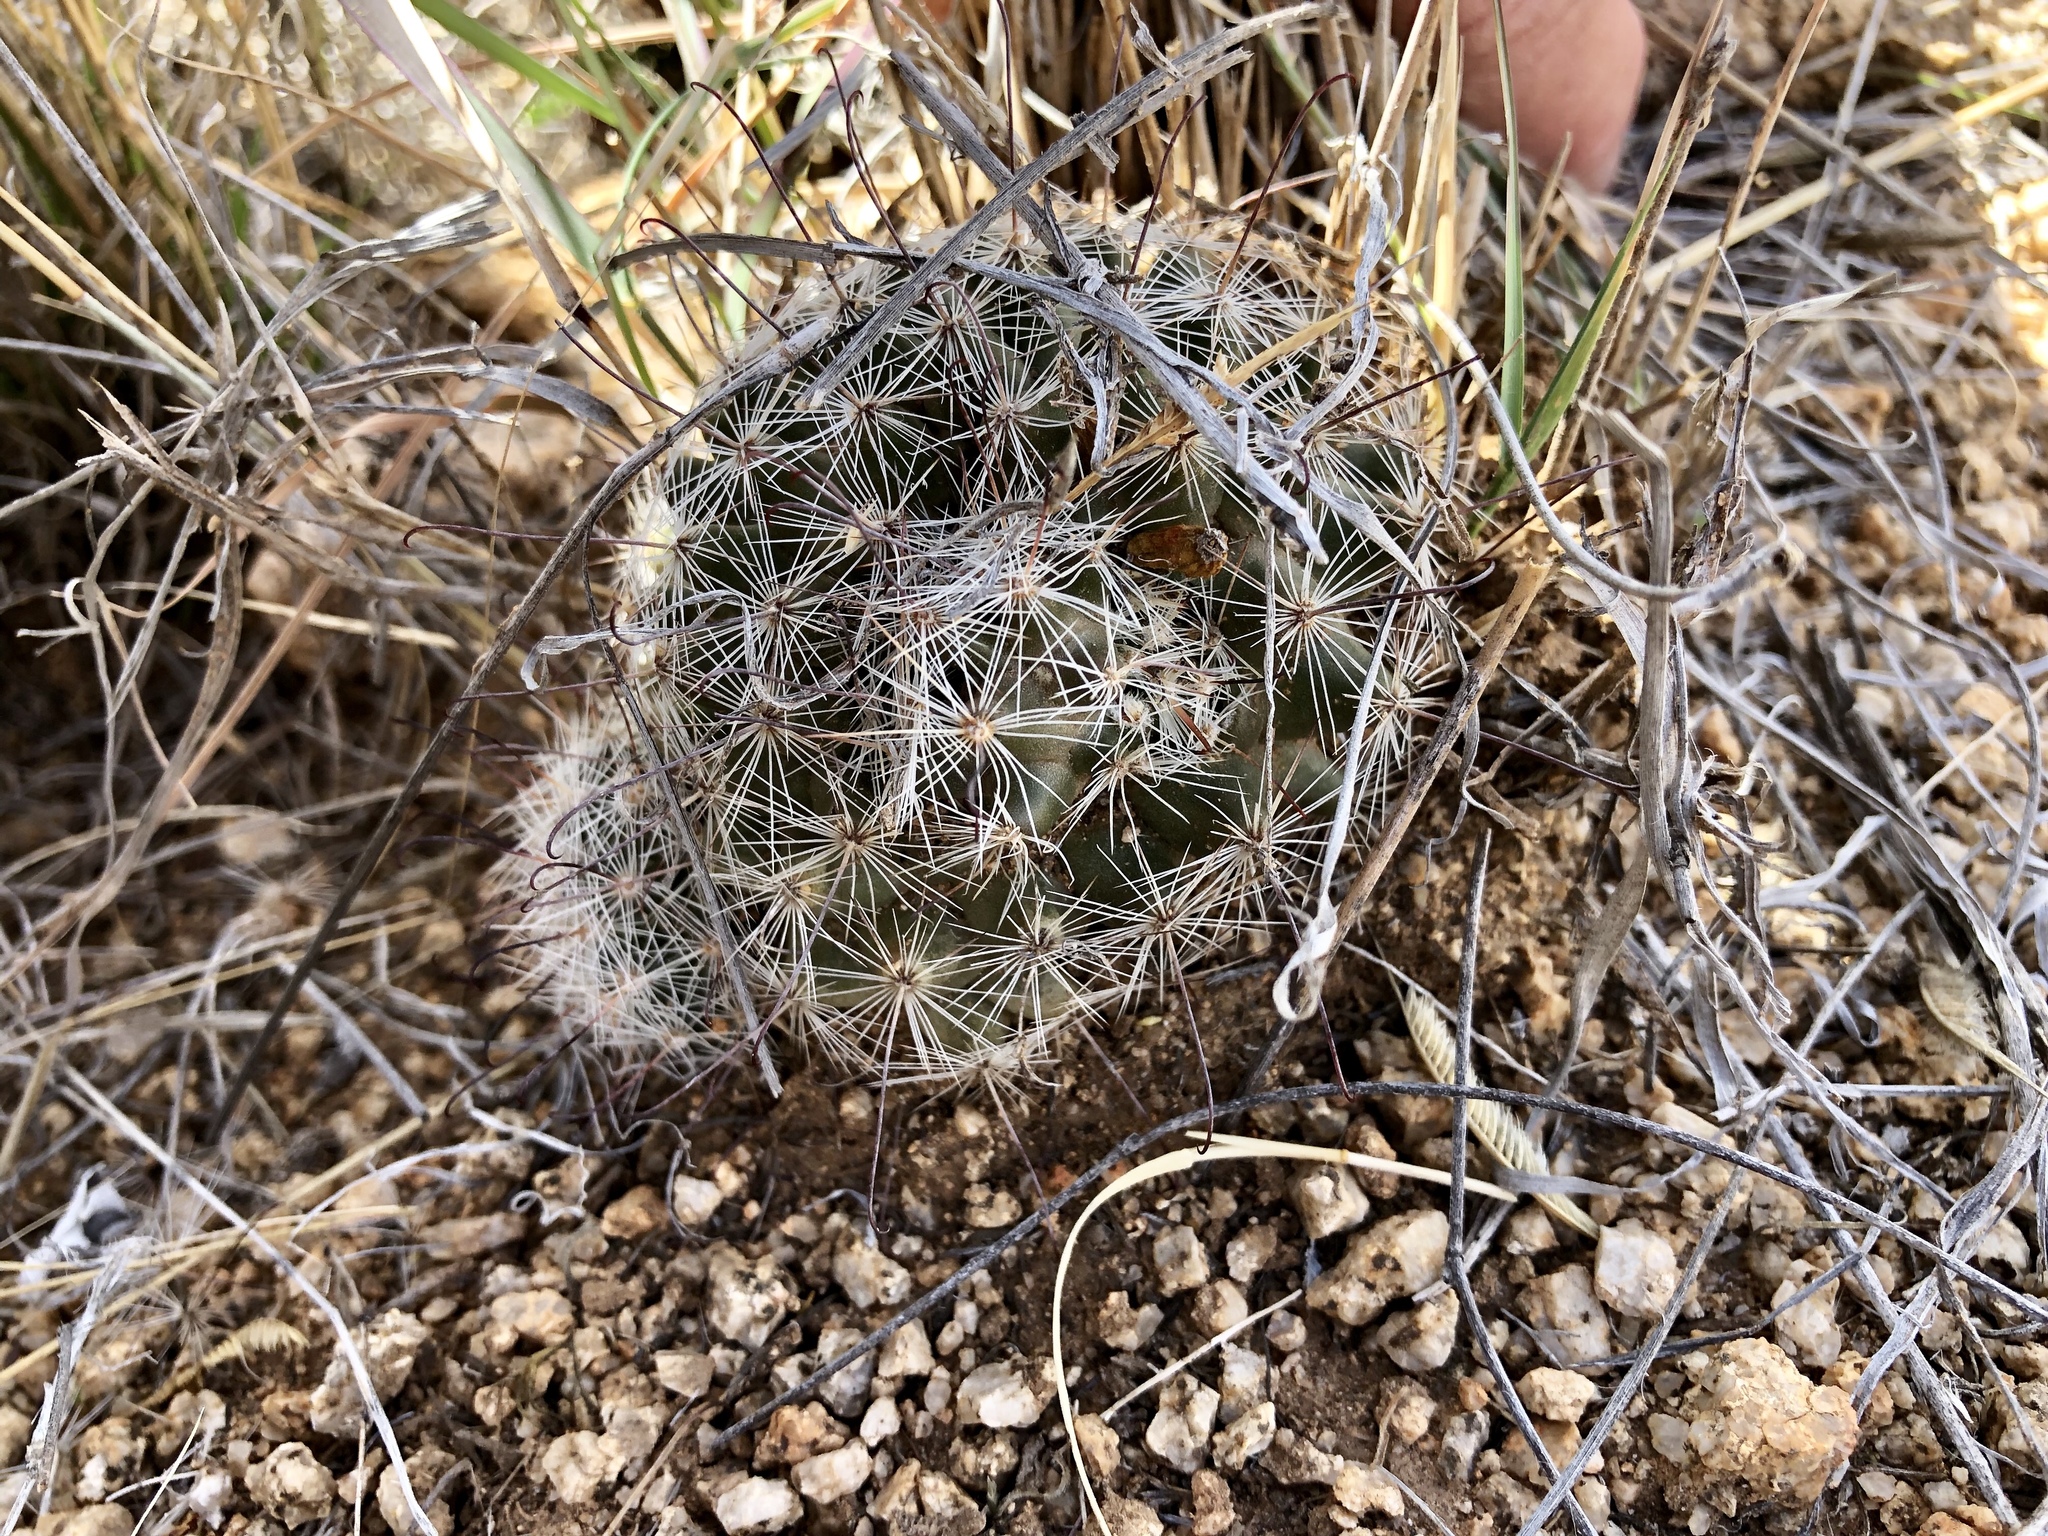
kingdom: Plantae
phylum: Tracheophyta
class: Magnoliopsida
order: Caryophyllales
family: Cactaceae
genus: Cochemiea
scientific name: Cochemiea grahamii
